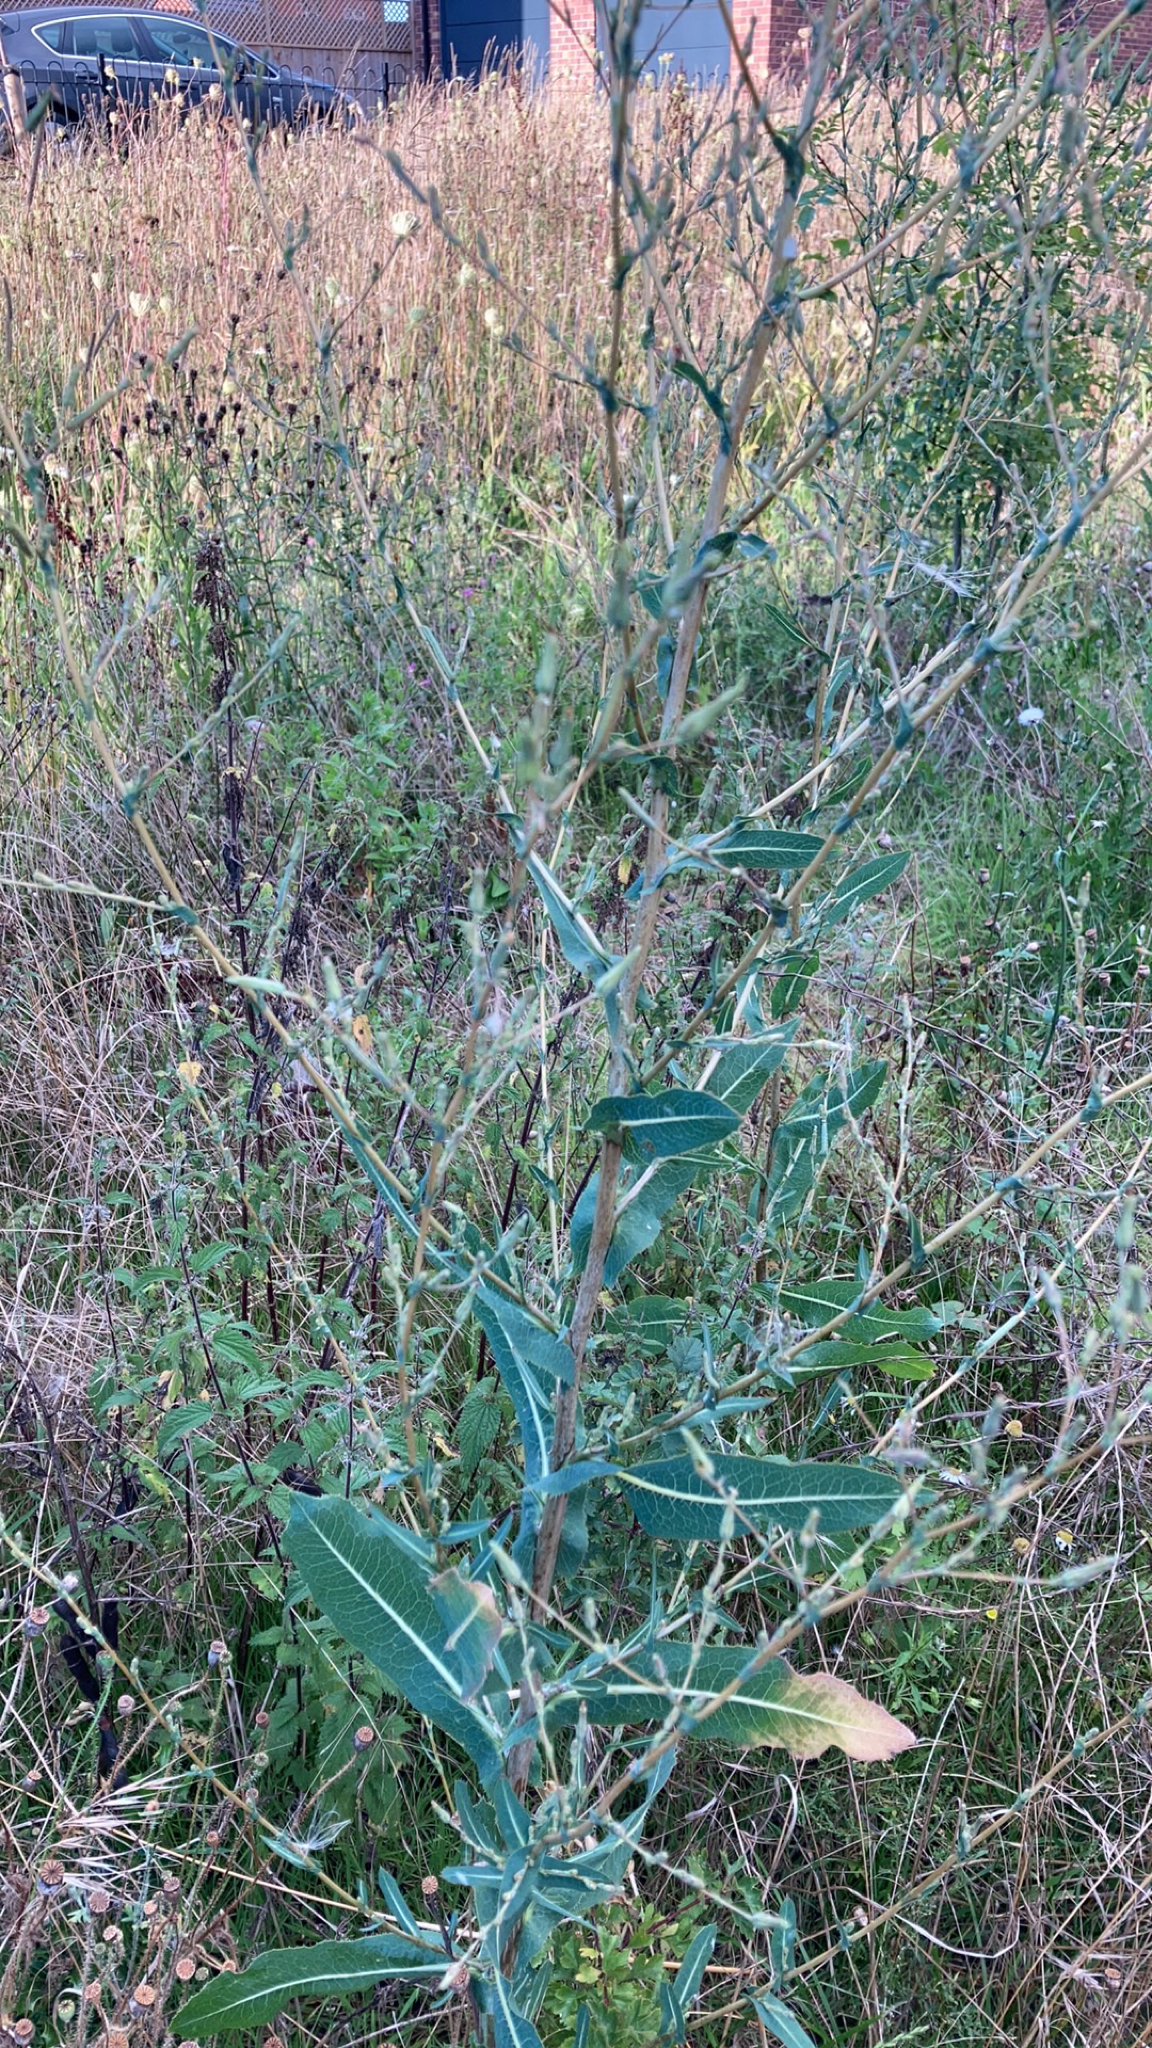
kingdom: Plantae
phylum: Tracheophyta
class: Magnoliopsida
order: Asterales
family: Asteraceae
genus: Lactuca
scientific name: Lactuca serriola
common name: Prickly lettuce
